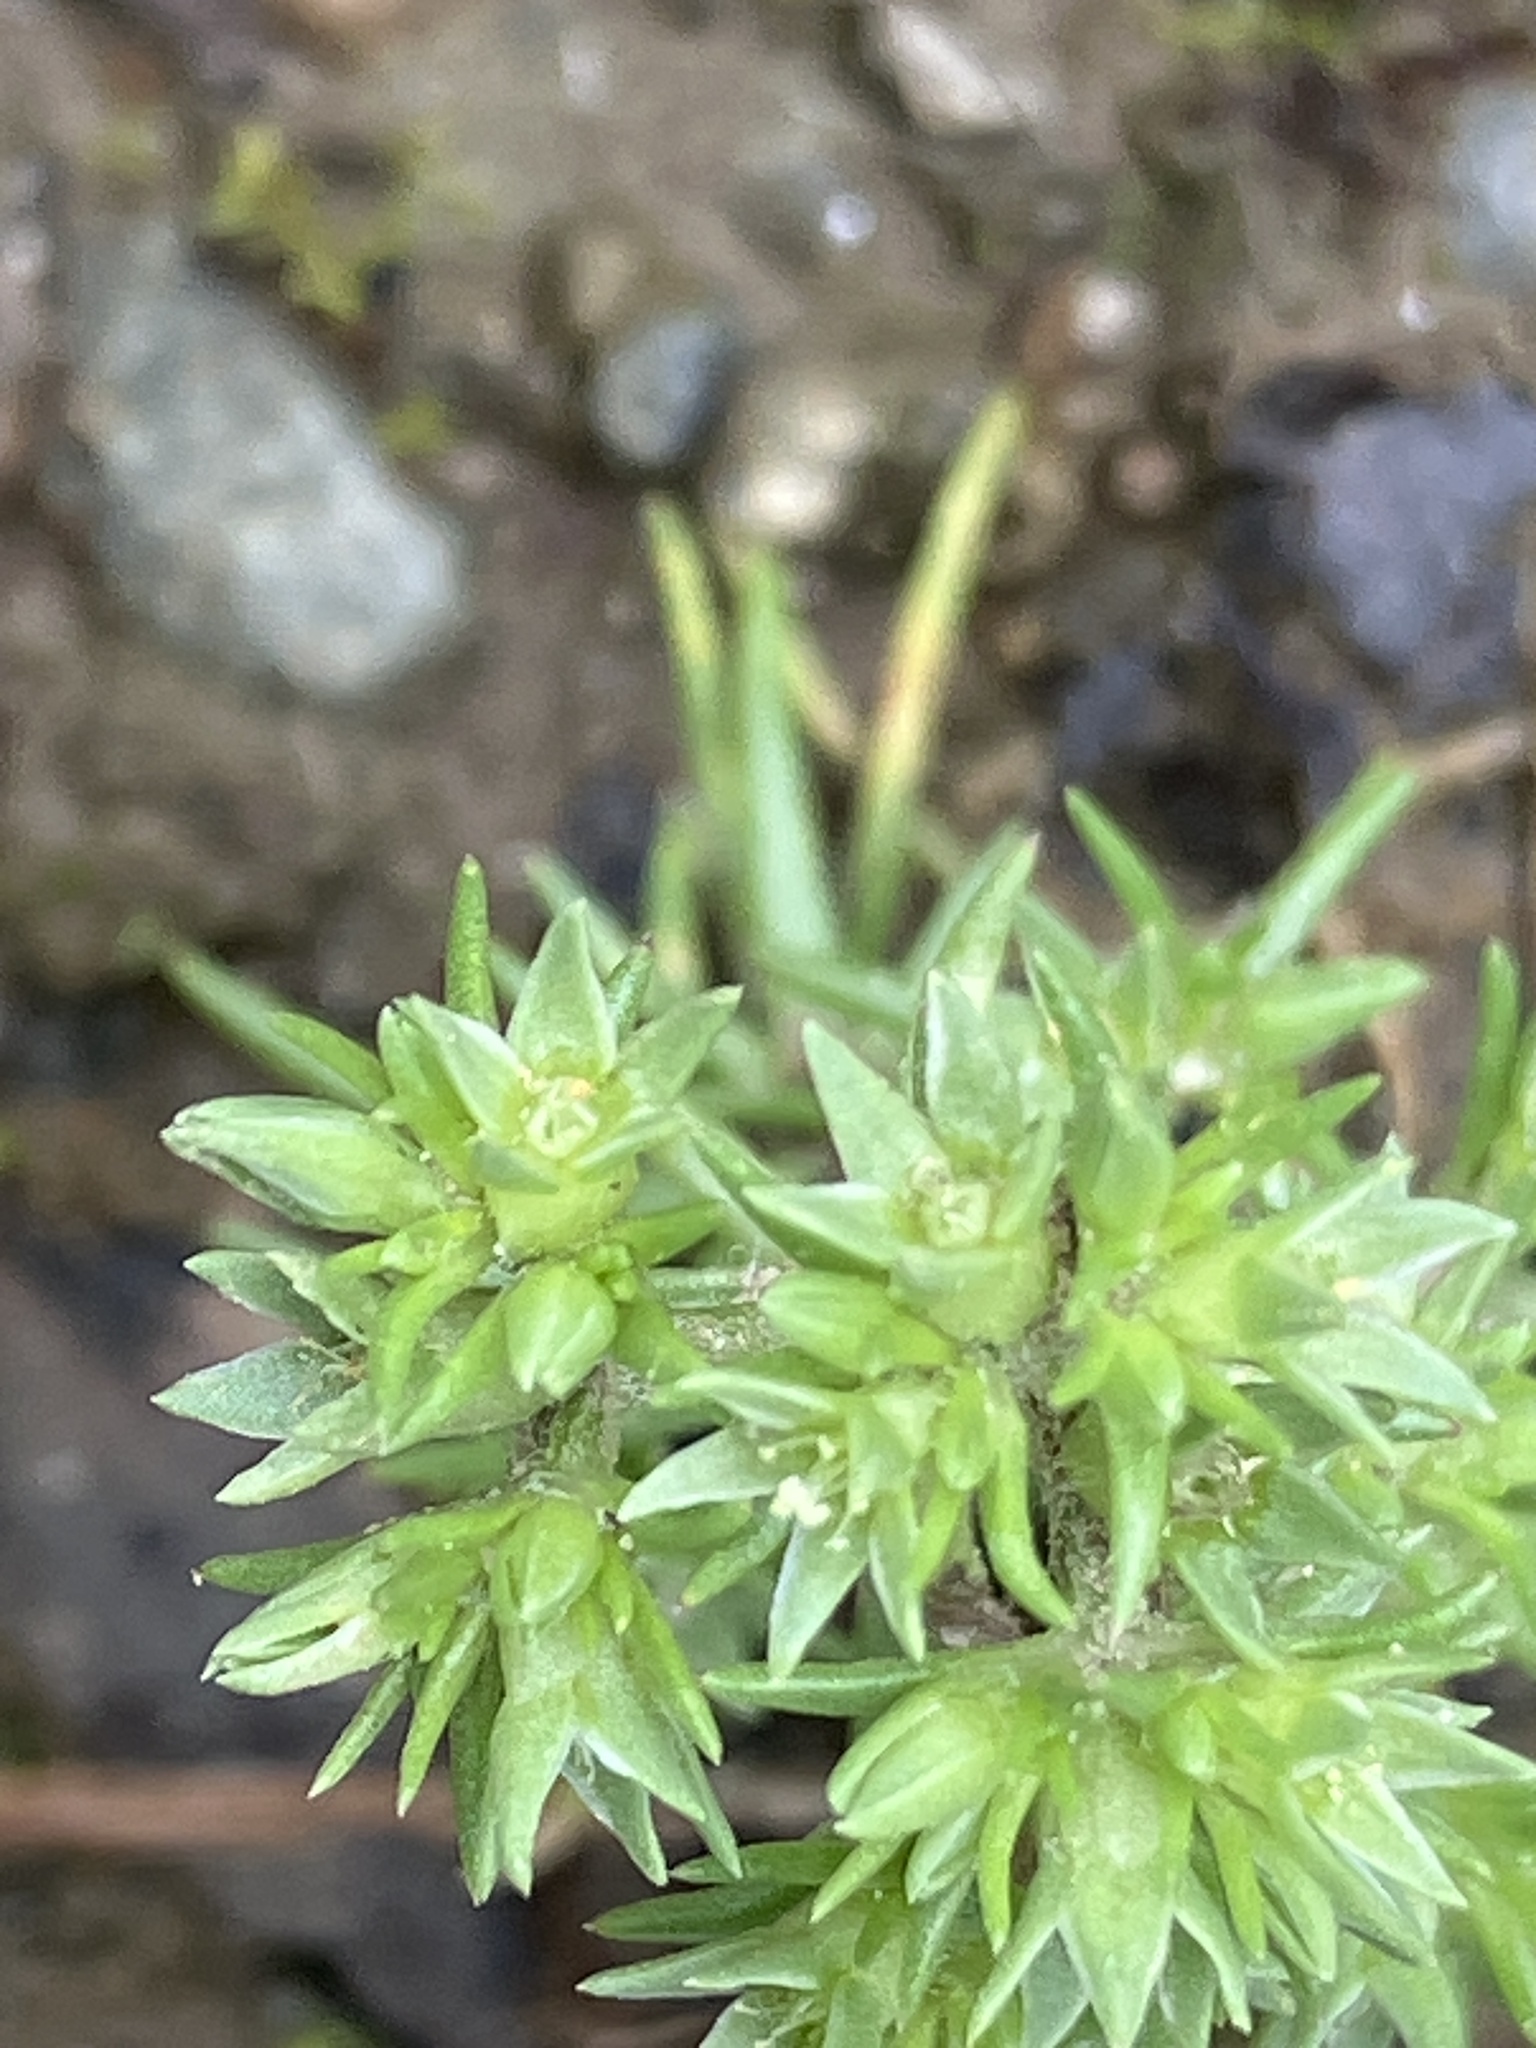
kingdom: Plantae
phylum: Tracheophyta
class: Magnoliopsida
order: Caryophyllales
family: Caryophyllaceae
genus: Scleranthus
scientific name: Scleranthus annuus
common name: Annual knawel
